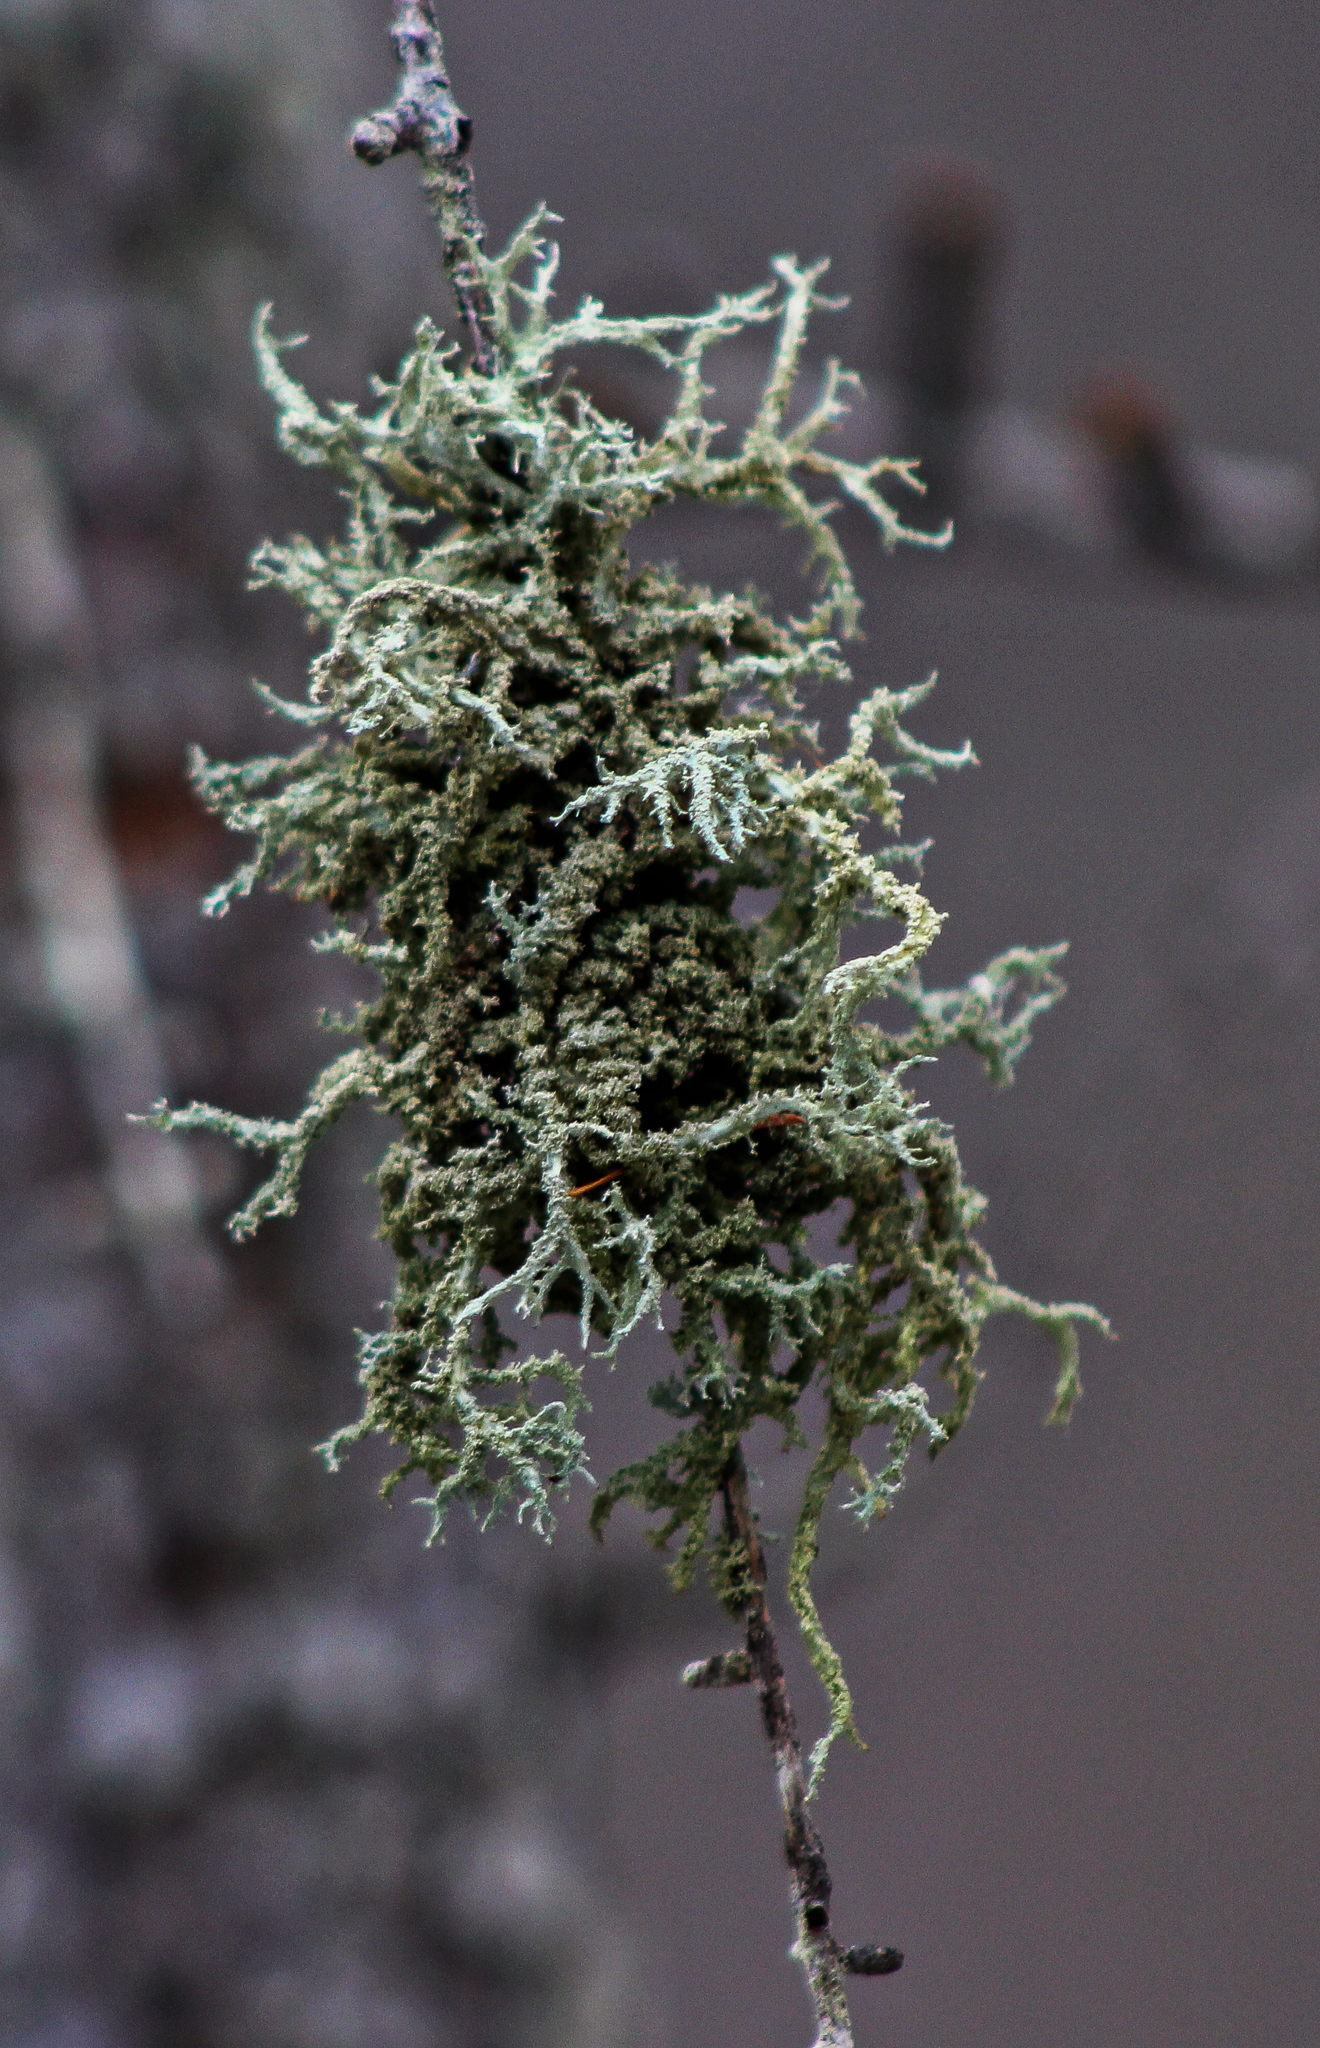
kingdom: Fungi
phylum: Ascomycota
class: Lecanoromycetes
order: Lecanorales
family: Parmeliaceae
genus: Evernia
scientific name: Evernia mesomorpha
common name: Boreal oak moss lichen
